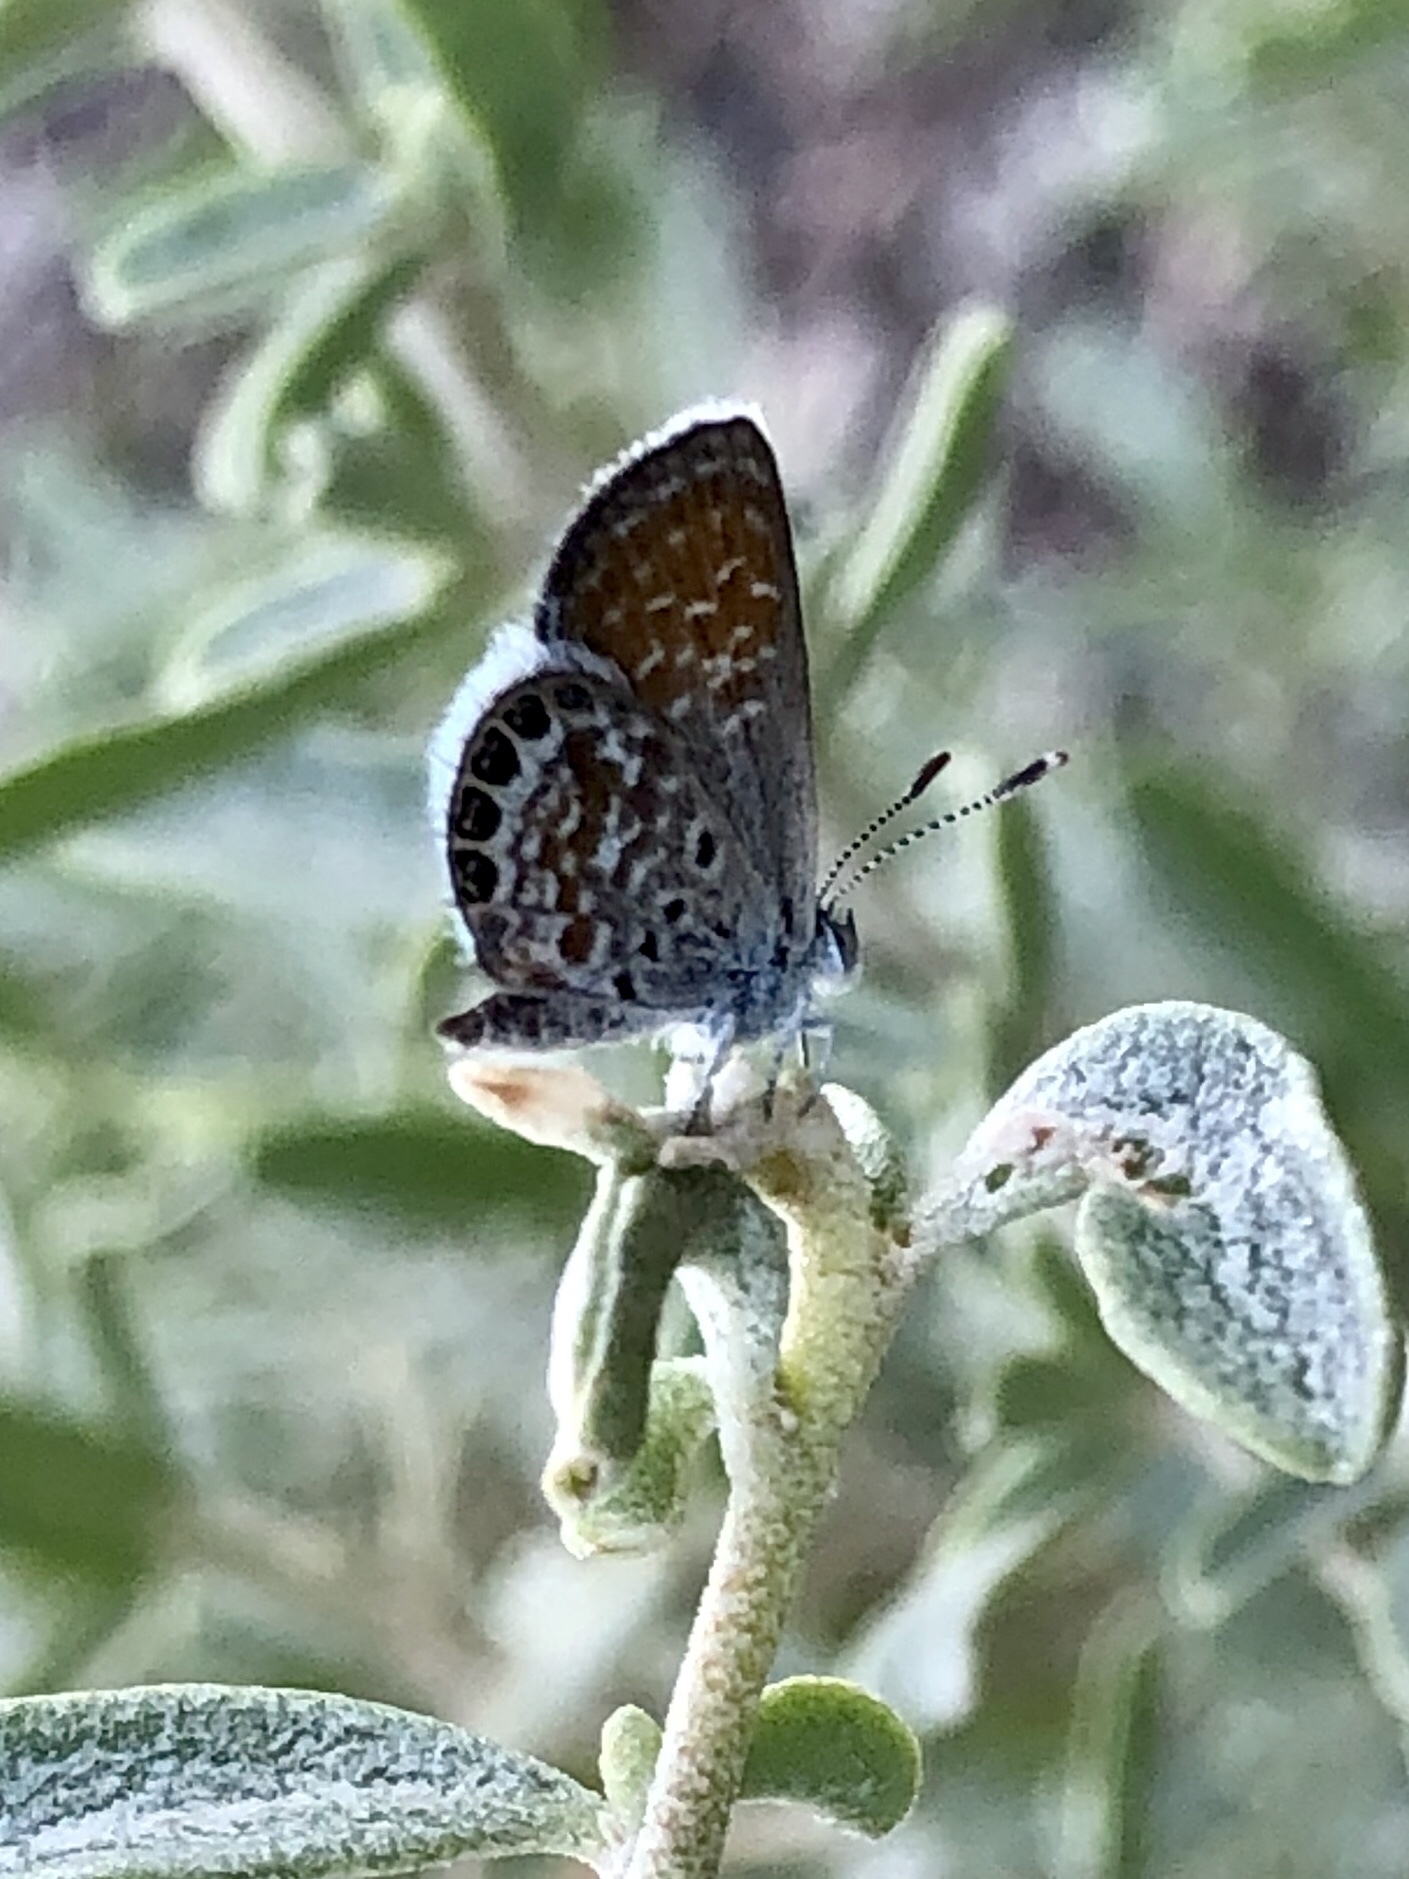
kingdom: Animalia
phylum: Arthropoda
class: Insecta
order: Lepidoptera
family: Lycaenidae
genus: Brephidium
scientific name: Brephidium exilis
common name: Pygmy blue
